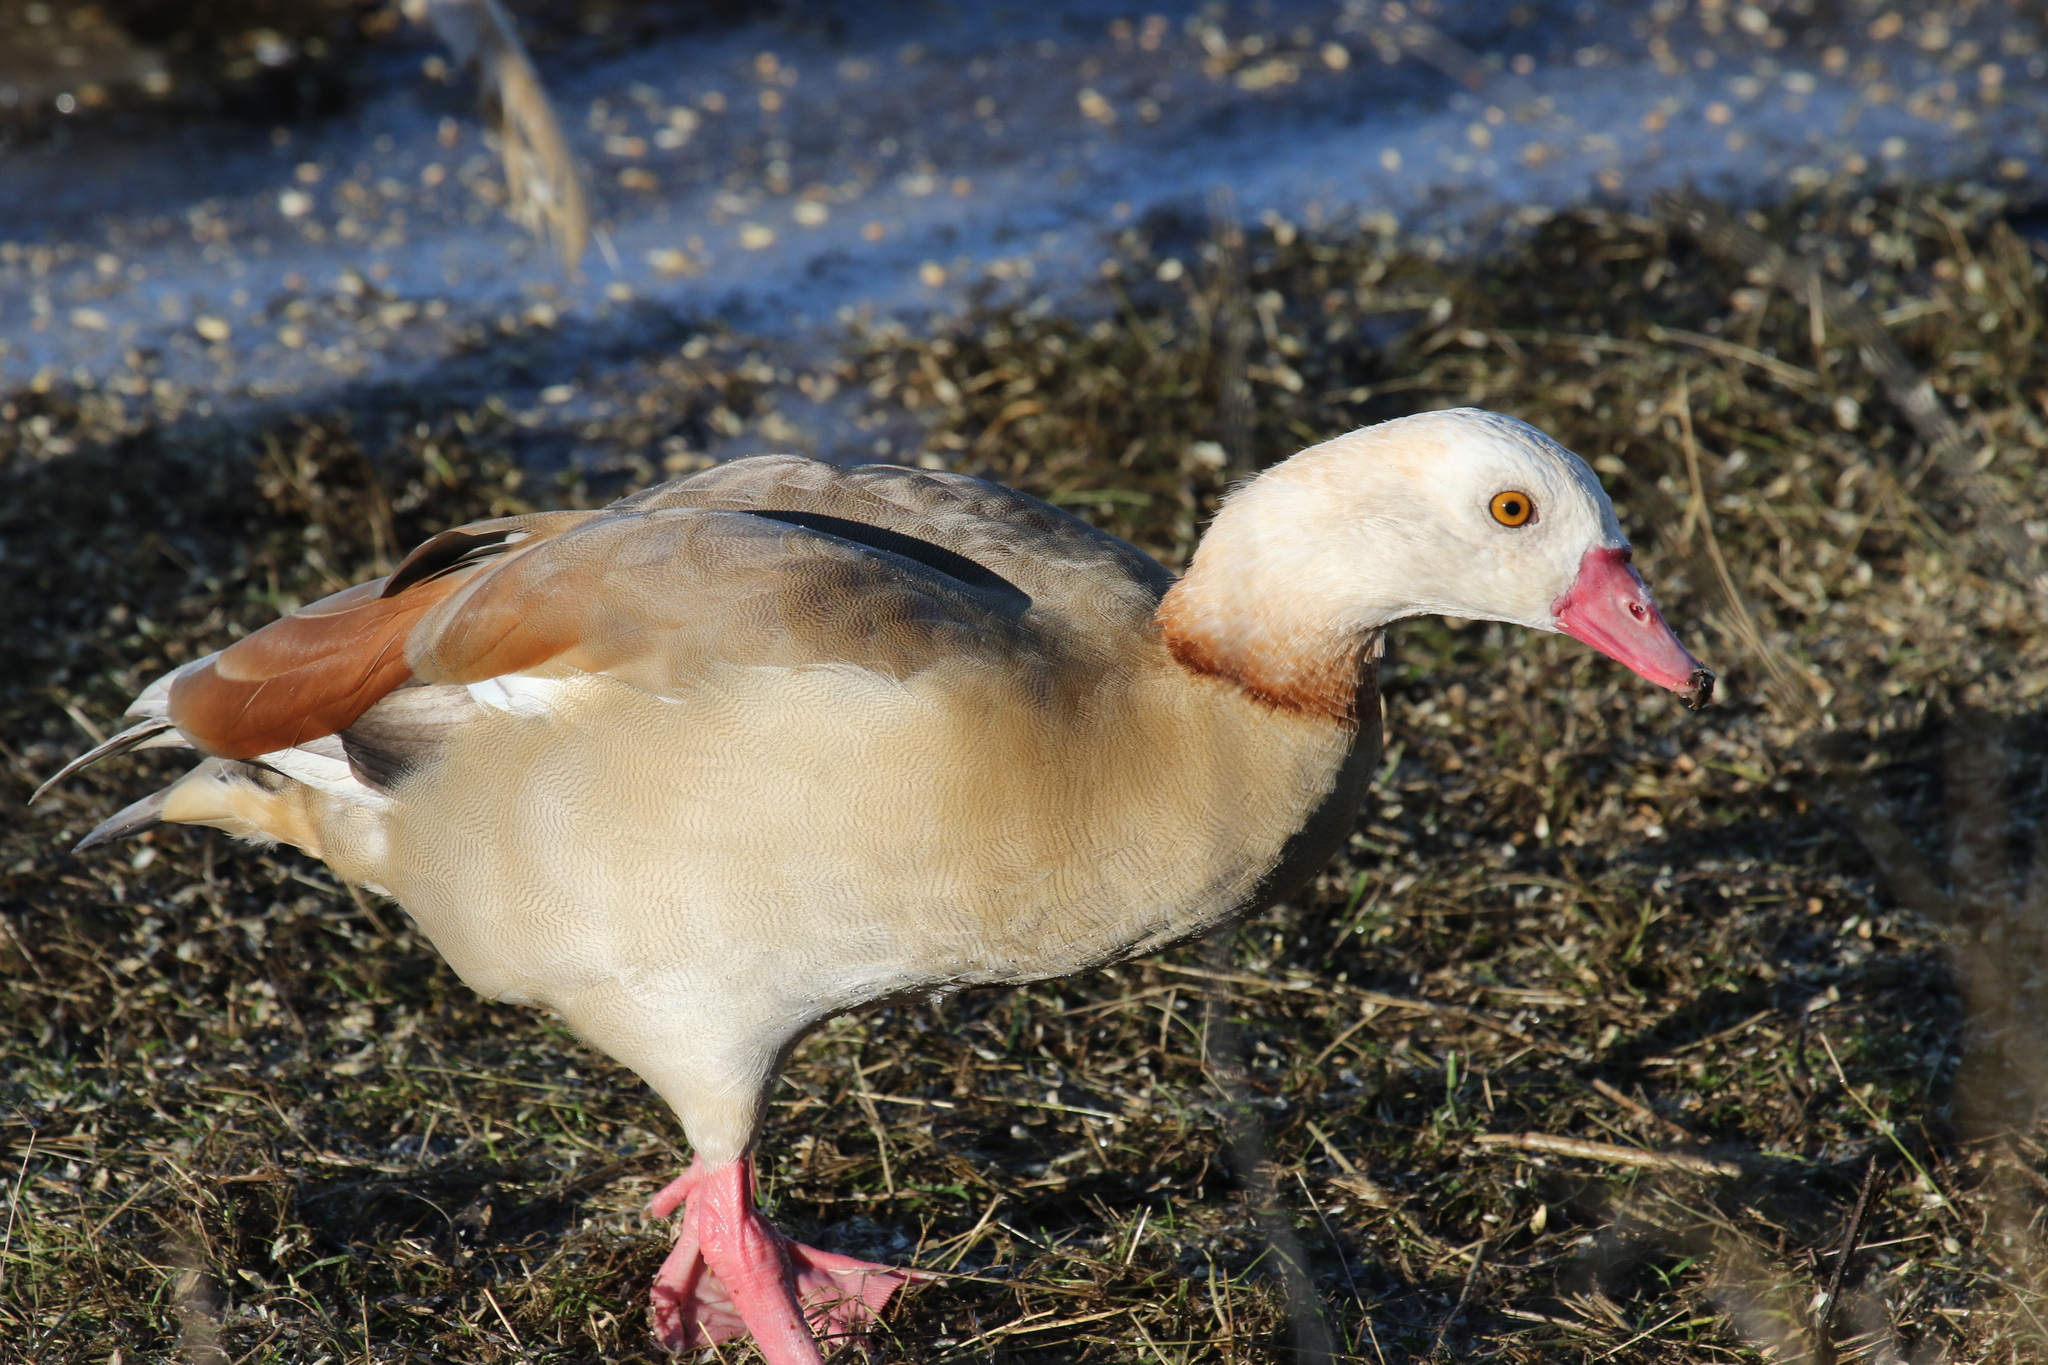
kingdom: Animalia
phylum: Chordata
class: Aves
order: Anseriformes
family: Anatidae
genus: Alopochen
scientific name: Alopochen aegyptiaca
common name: Egyptian goose
